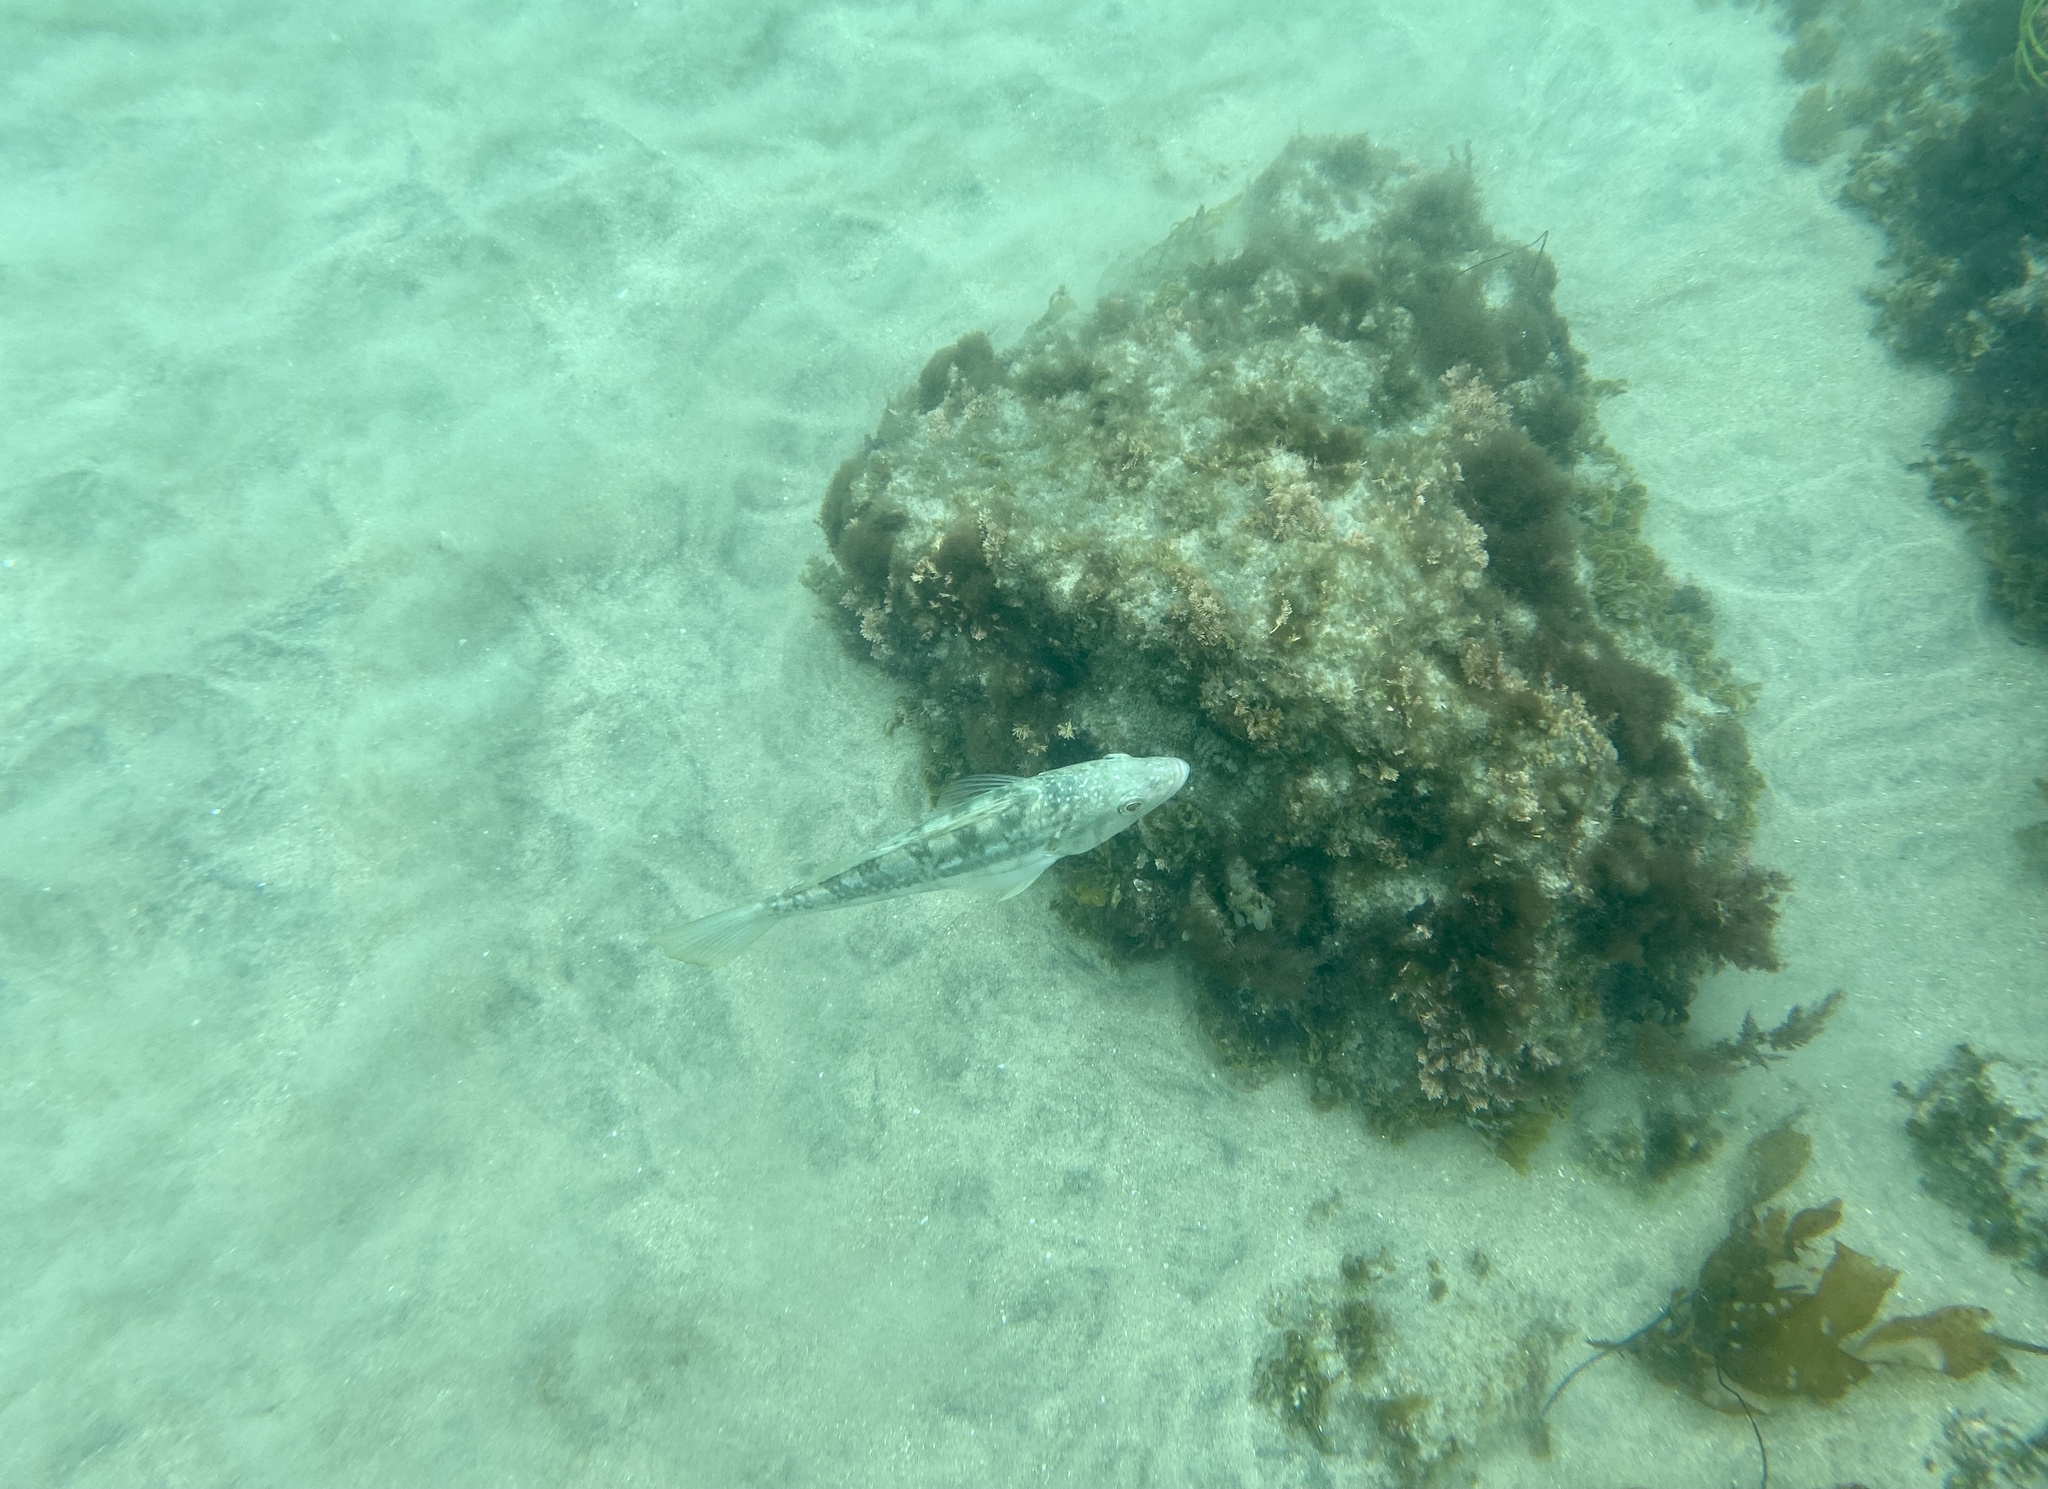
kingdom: Animalia
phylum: Chordata
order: Perciformes
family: Serranidae
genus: Paralabrax
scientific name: Paralabrax clathratus
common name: Kelp bass
